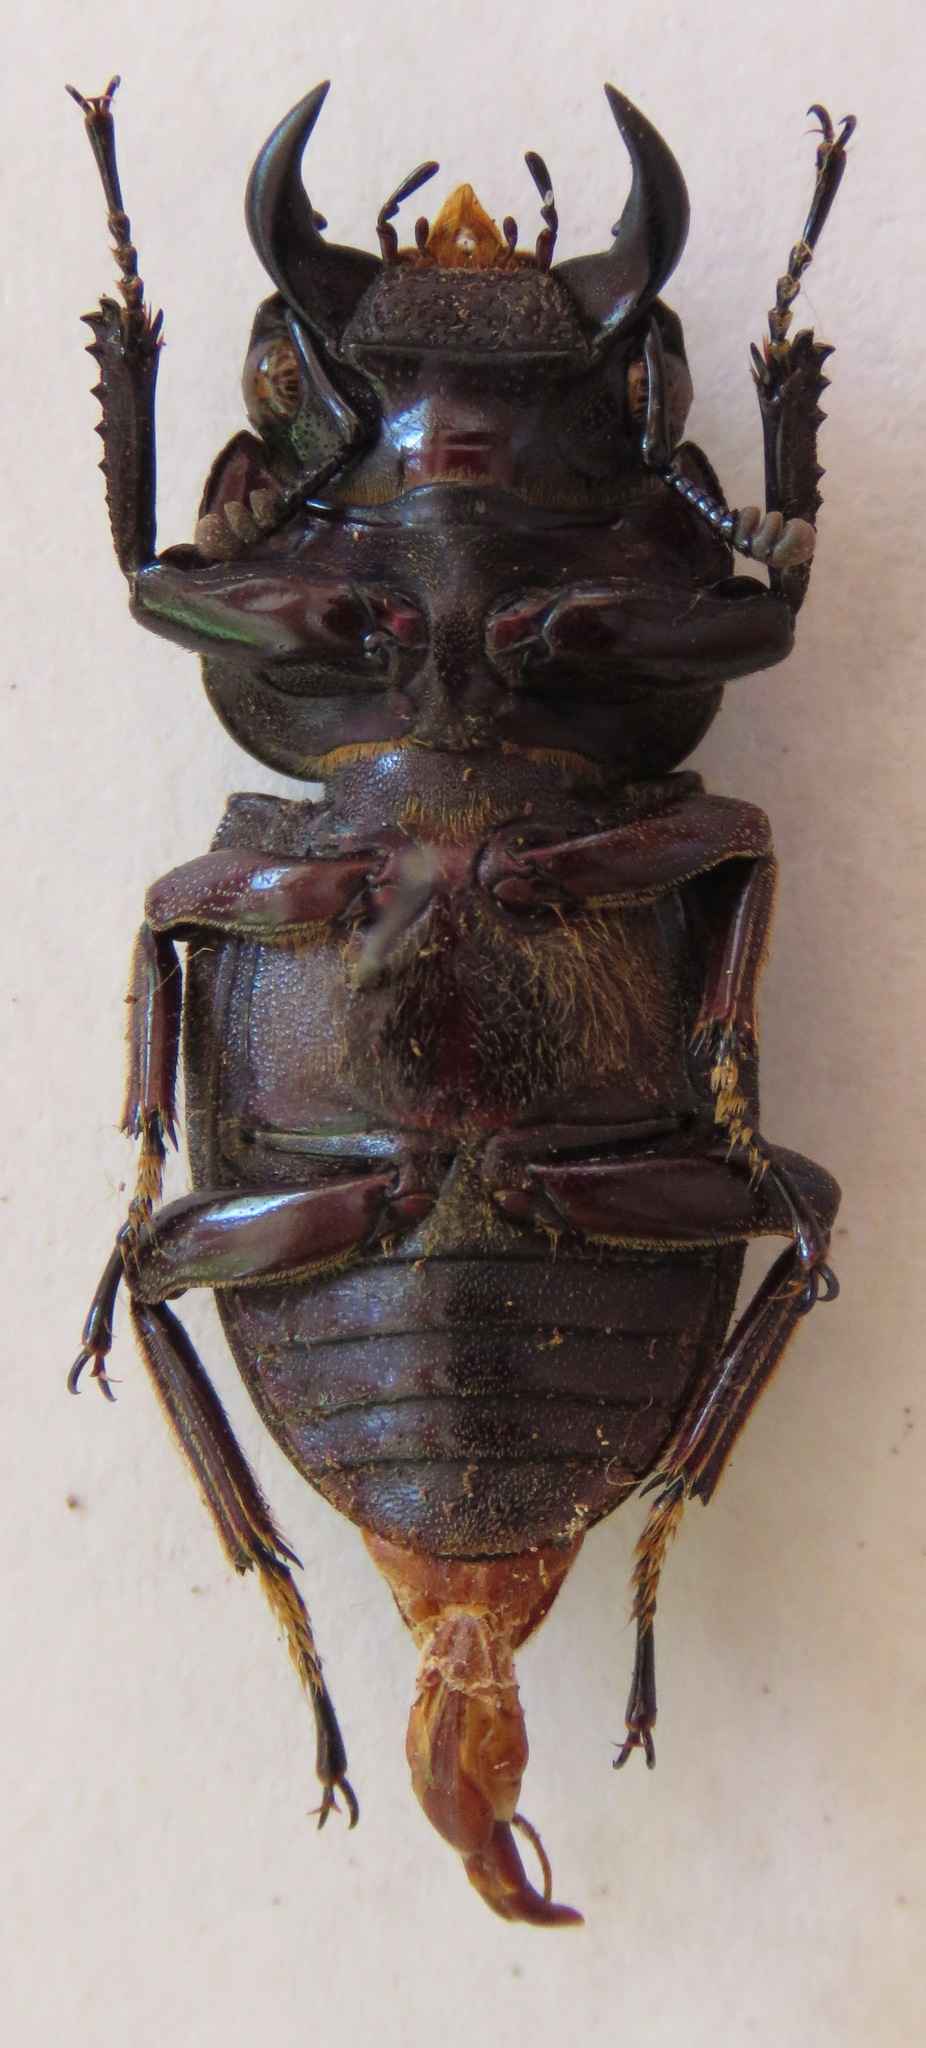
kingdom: Animalia
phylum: Arthropoda
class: Insecta
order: Coleoptera
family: Lucanidae
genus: Dorcus
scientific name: Dorcus ritsemae
